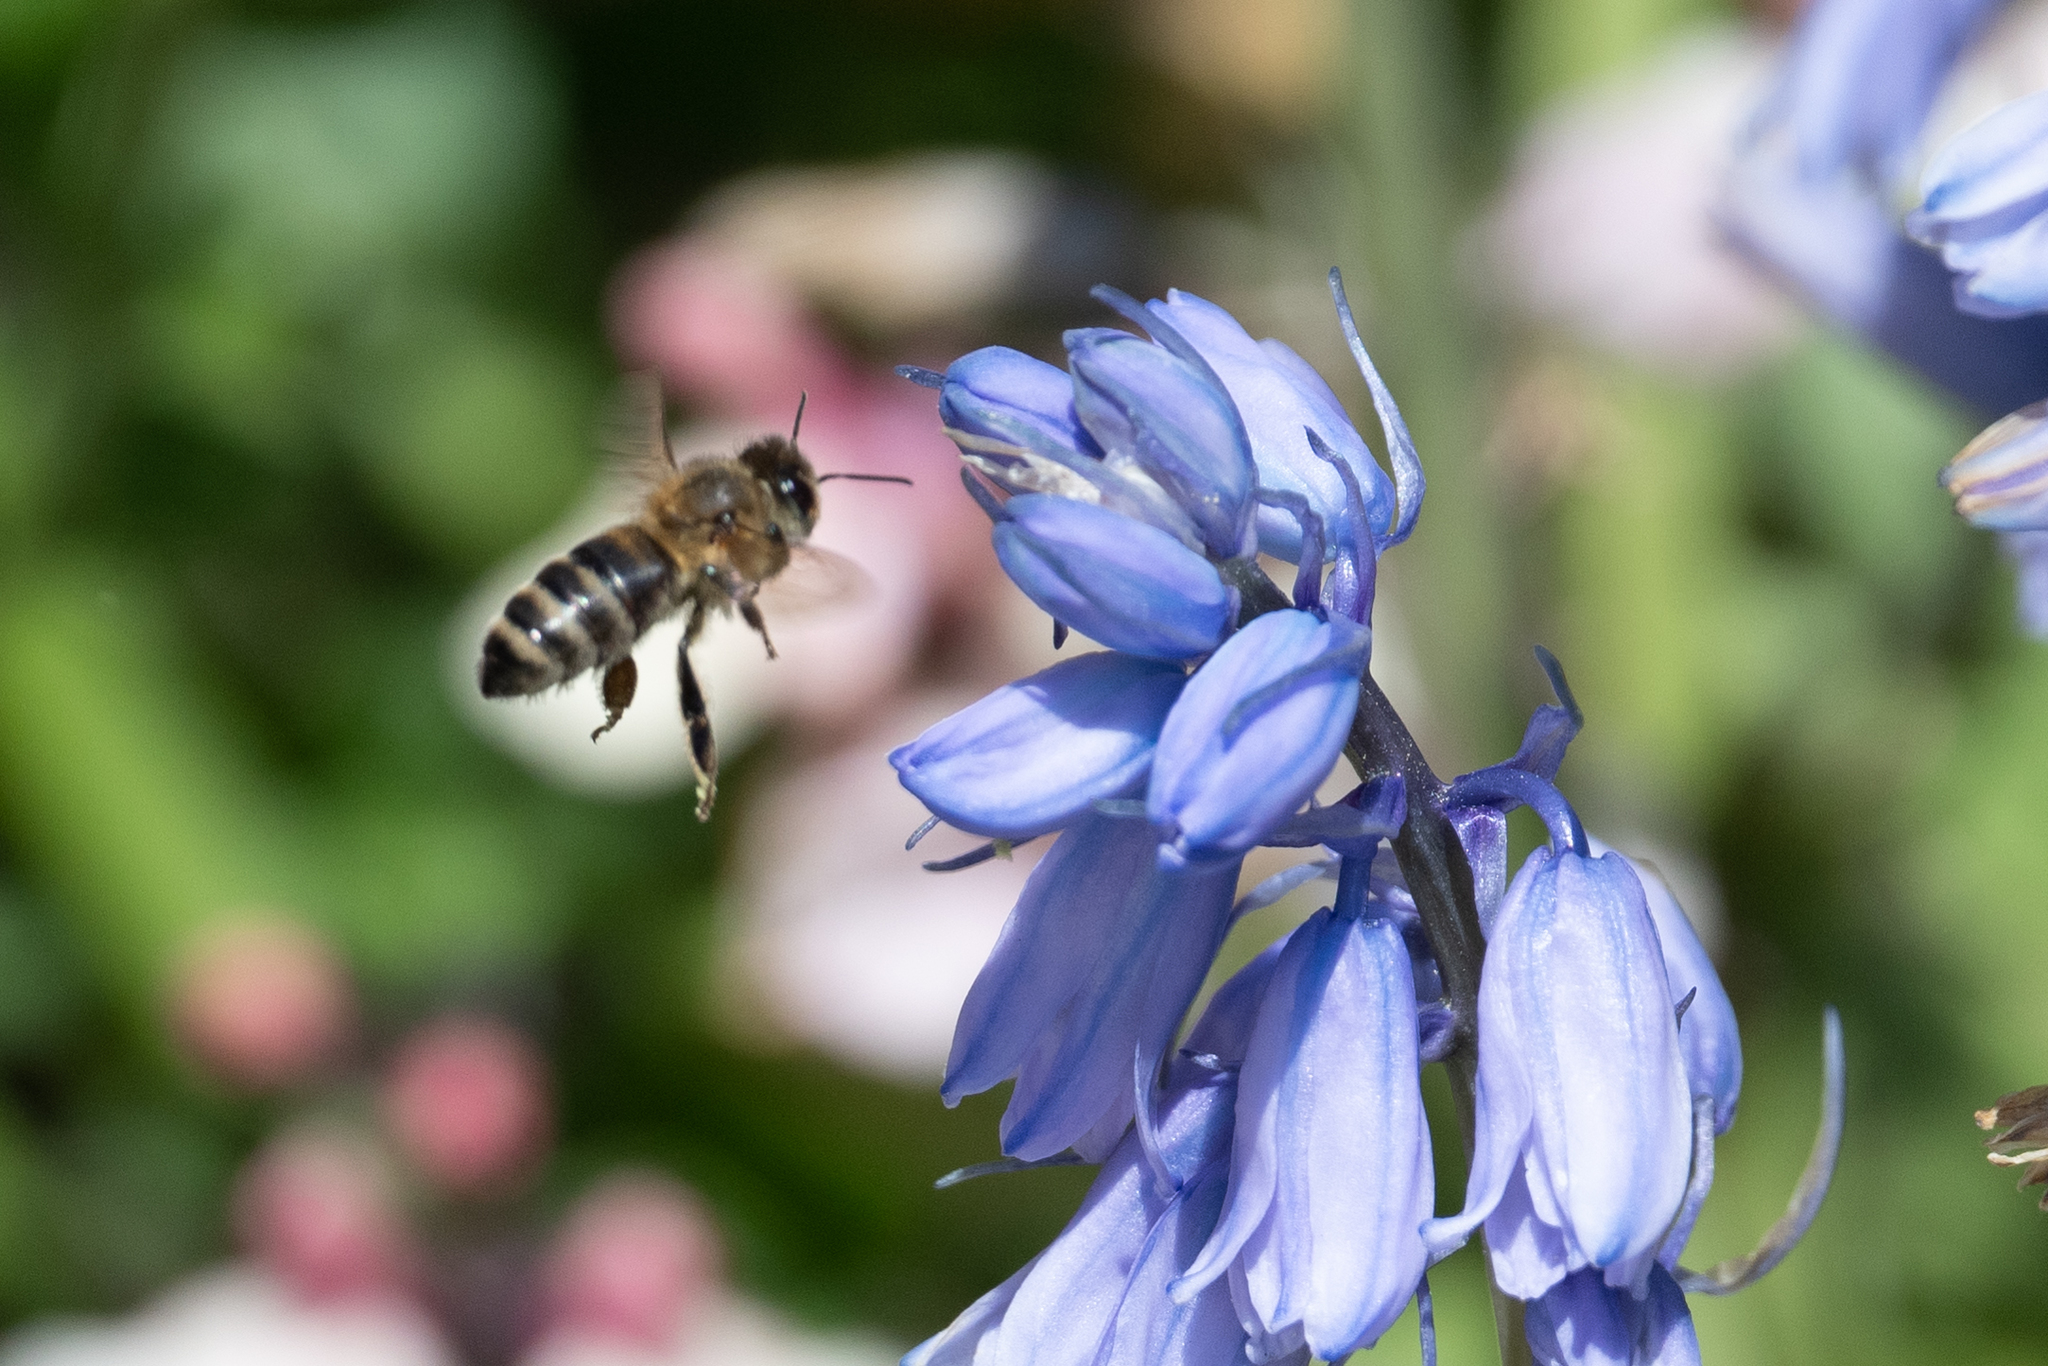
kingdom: Animalia
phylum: Arthropoda
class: Insecta
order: Hymenoptera
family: Apidae
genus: Apis
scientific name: Apis mellifera
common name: Honey bee
